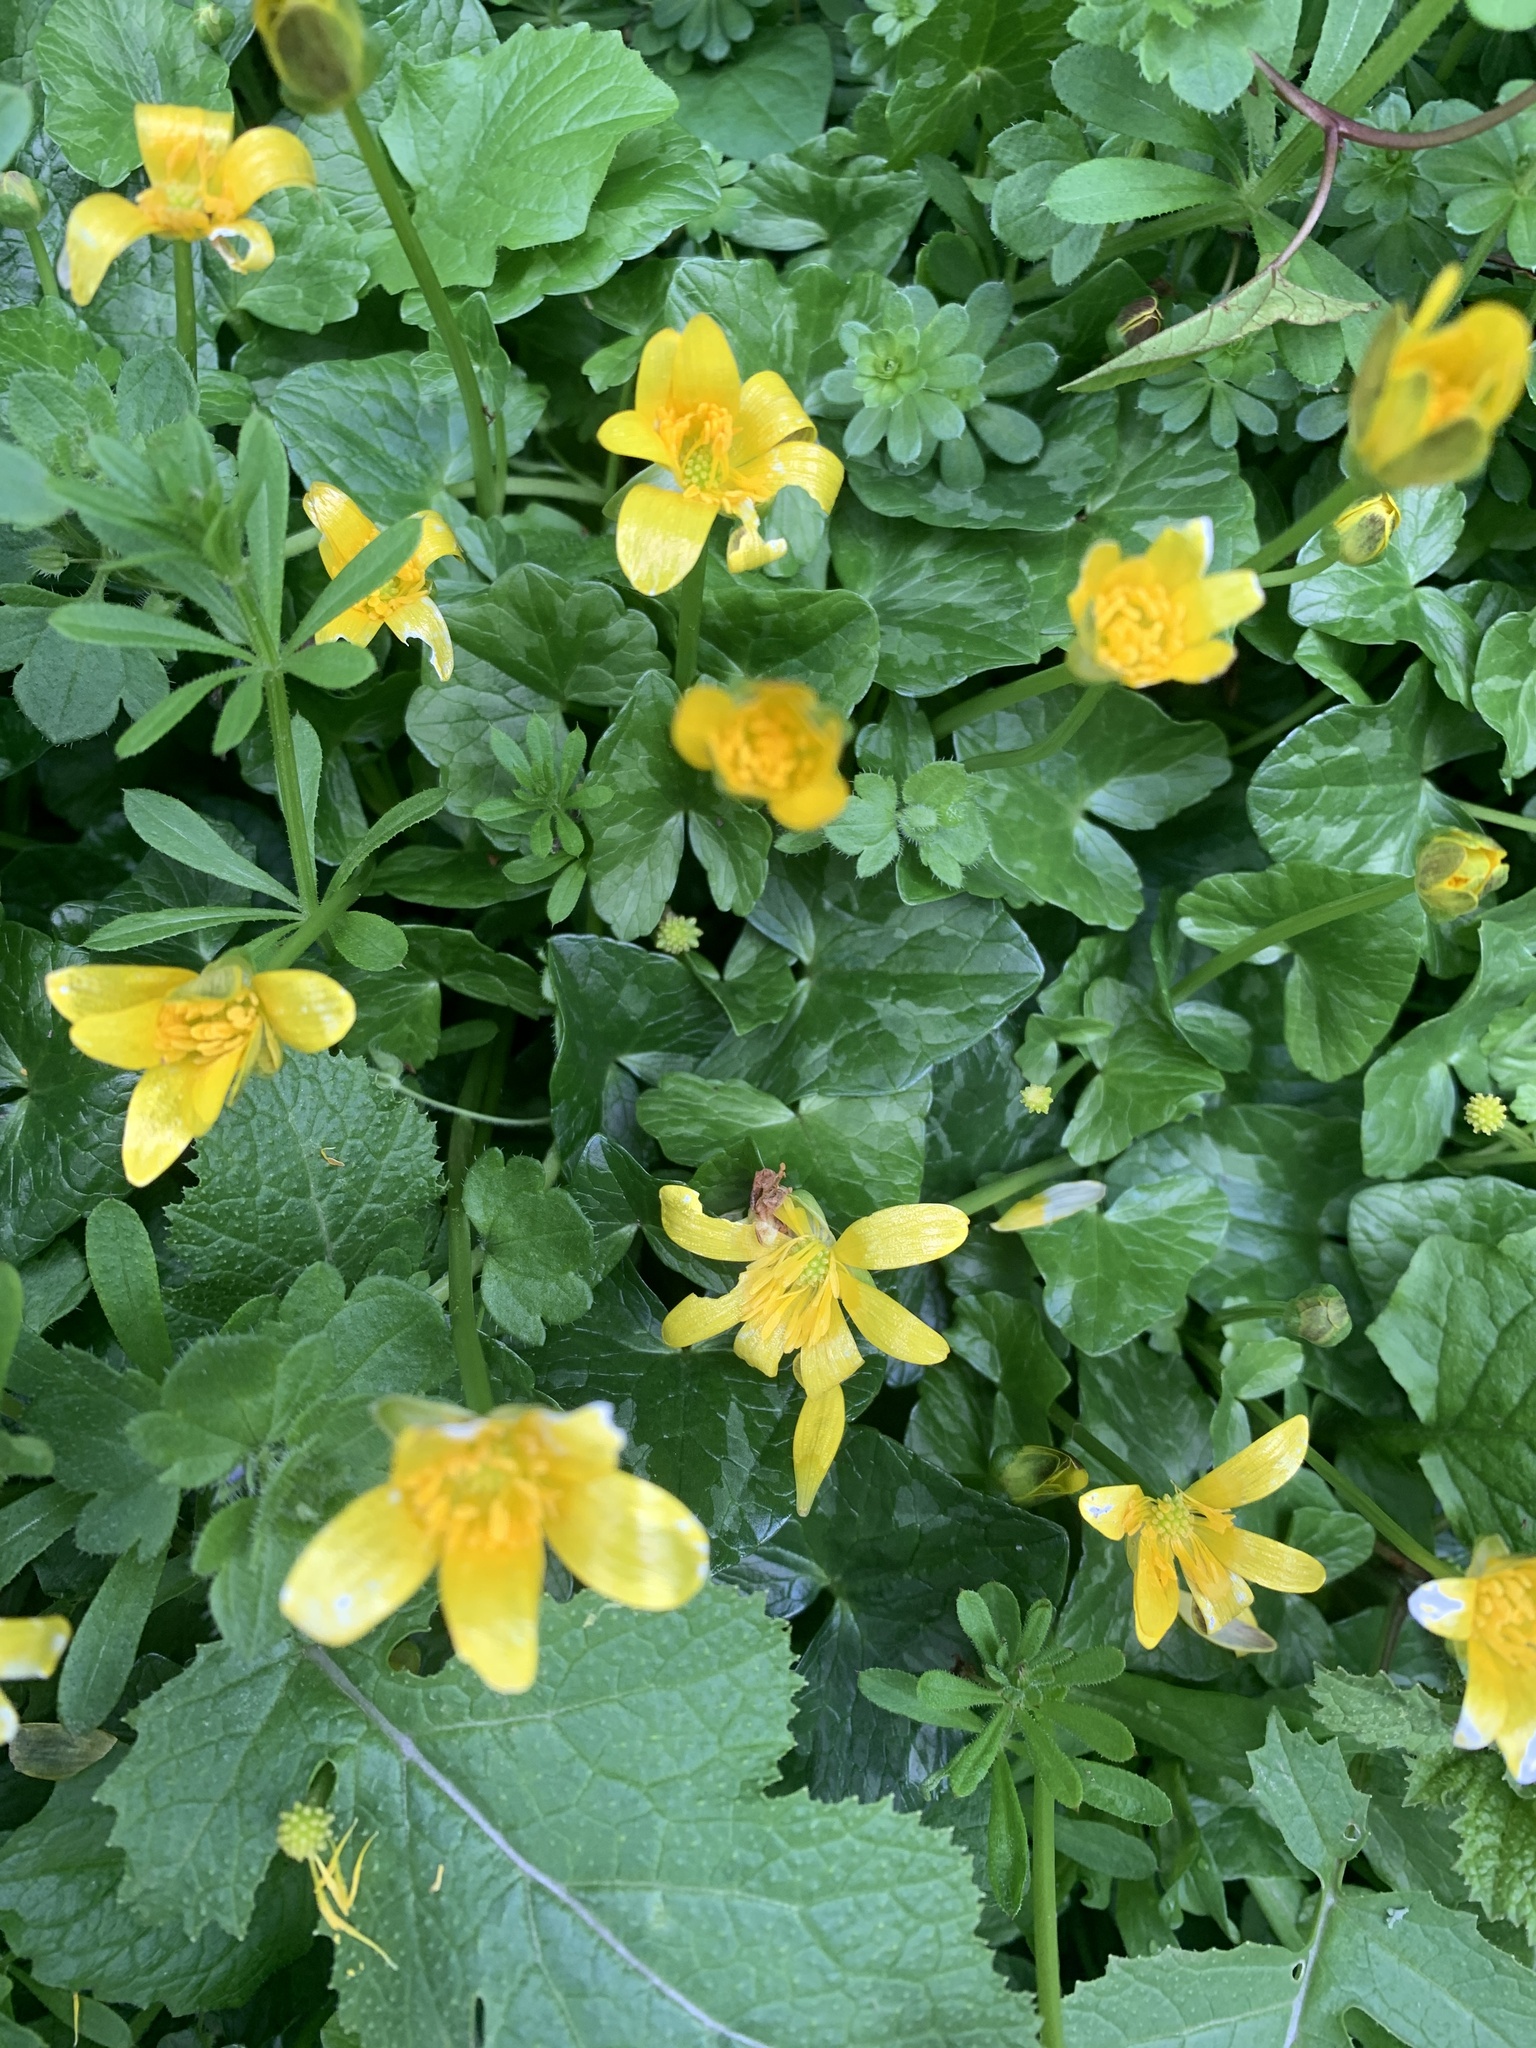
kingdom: Plantae
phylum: Tracheophyta
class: Magnoliopsida
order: Ranunculales
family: Ranunculaceae
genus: Ficaria
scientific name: Ficaria verna
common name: Lesser celandine
